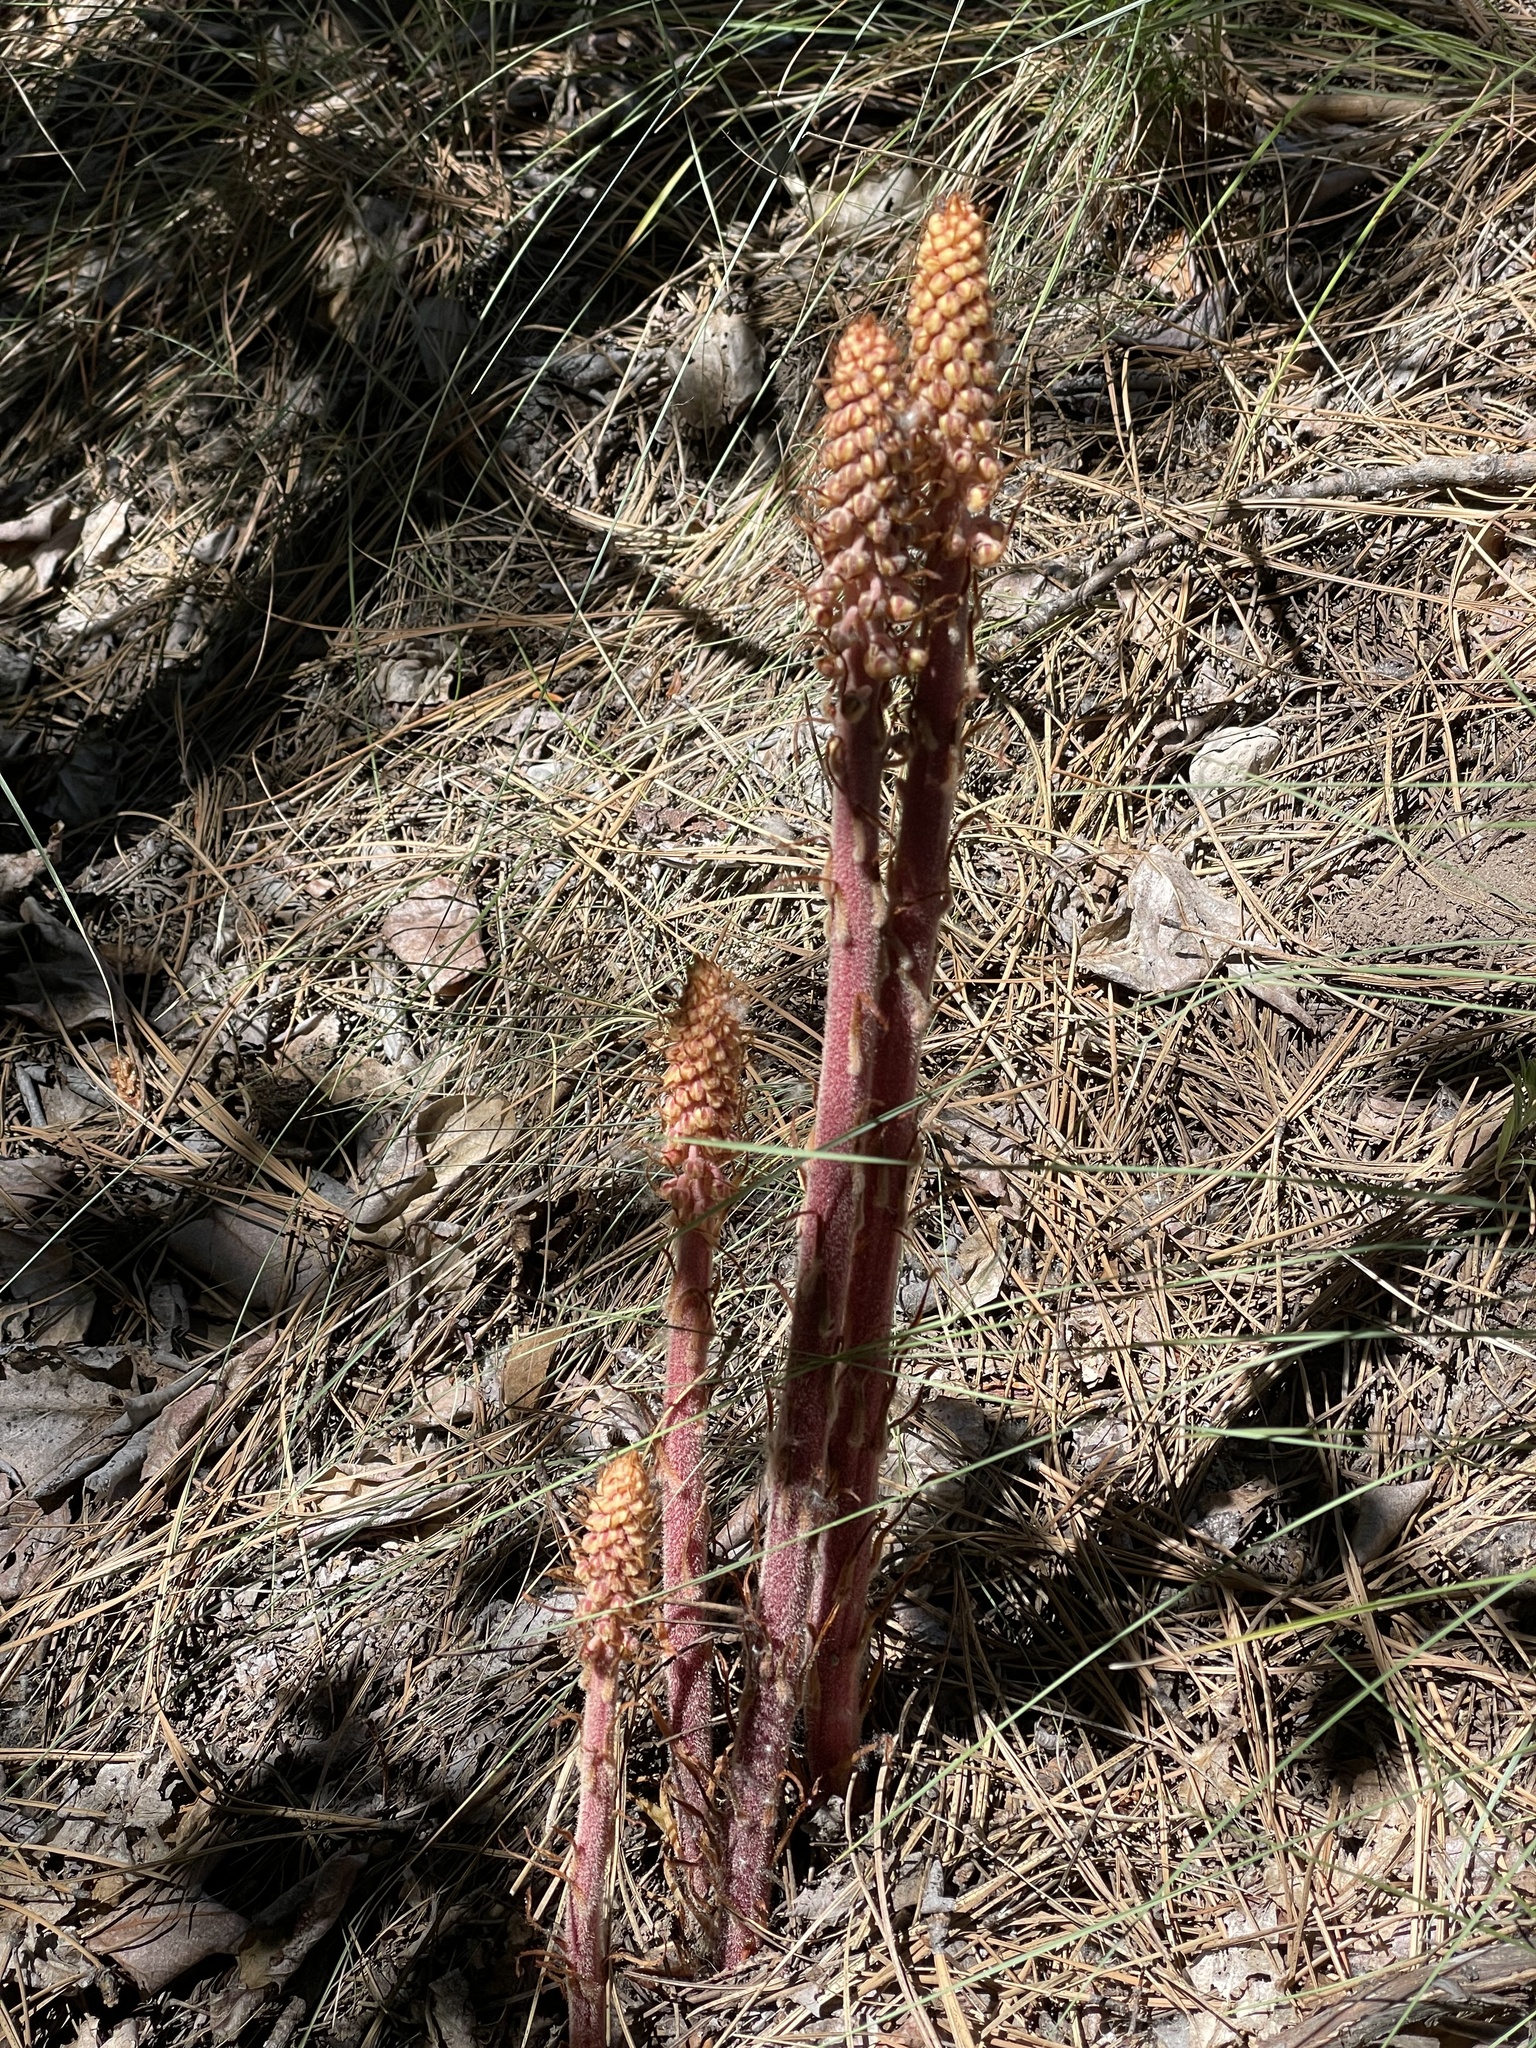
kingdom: Plantae
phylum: Tracheophyta
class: Magnoliopsida
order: Ericales
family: Ericaceae
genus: Pterospora
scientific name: Pterospora andromedea
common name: Giant bird's-nest
